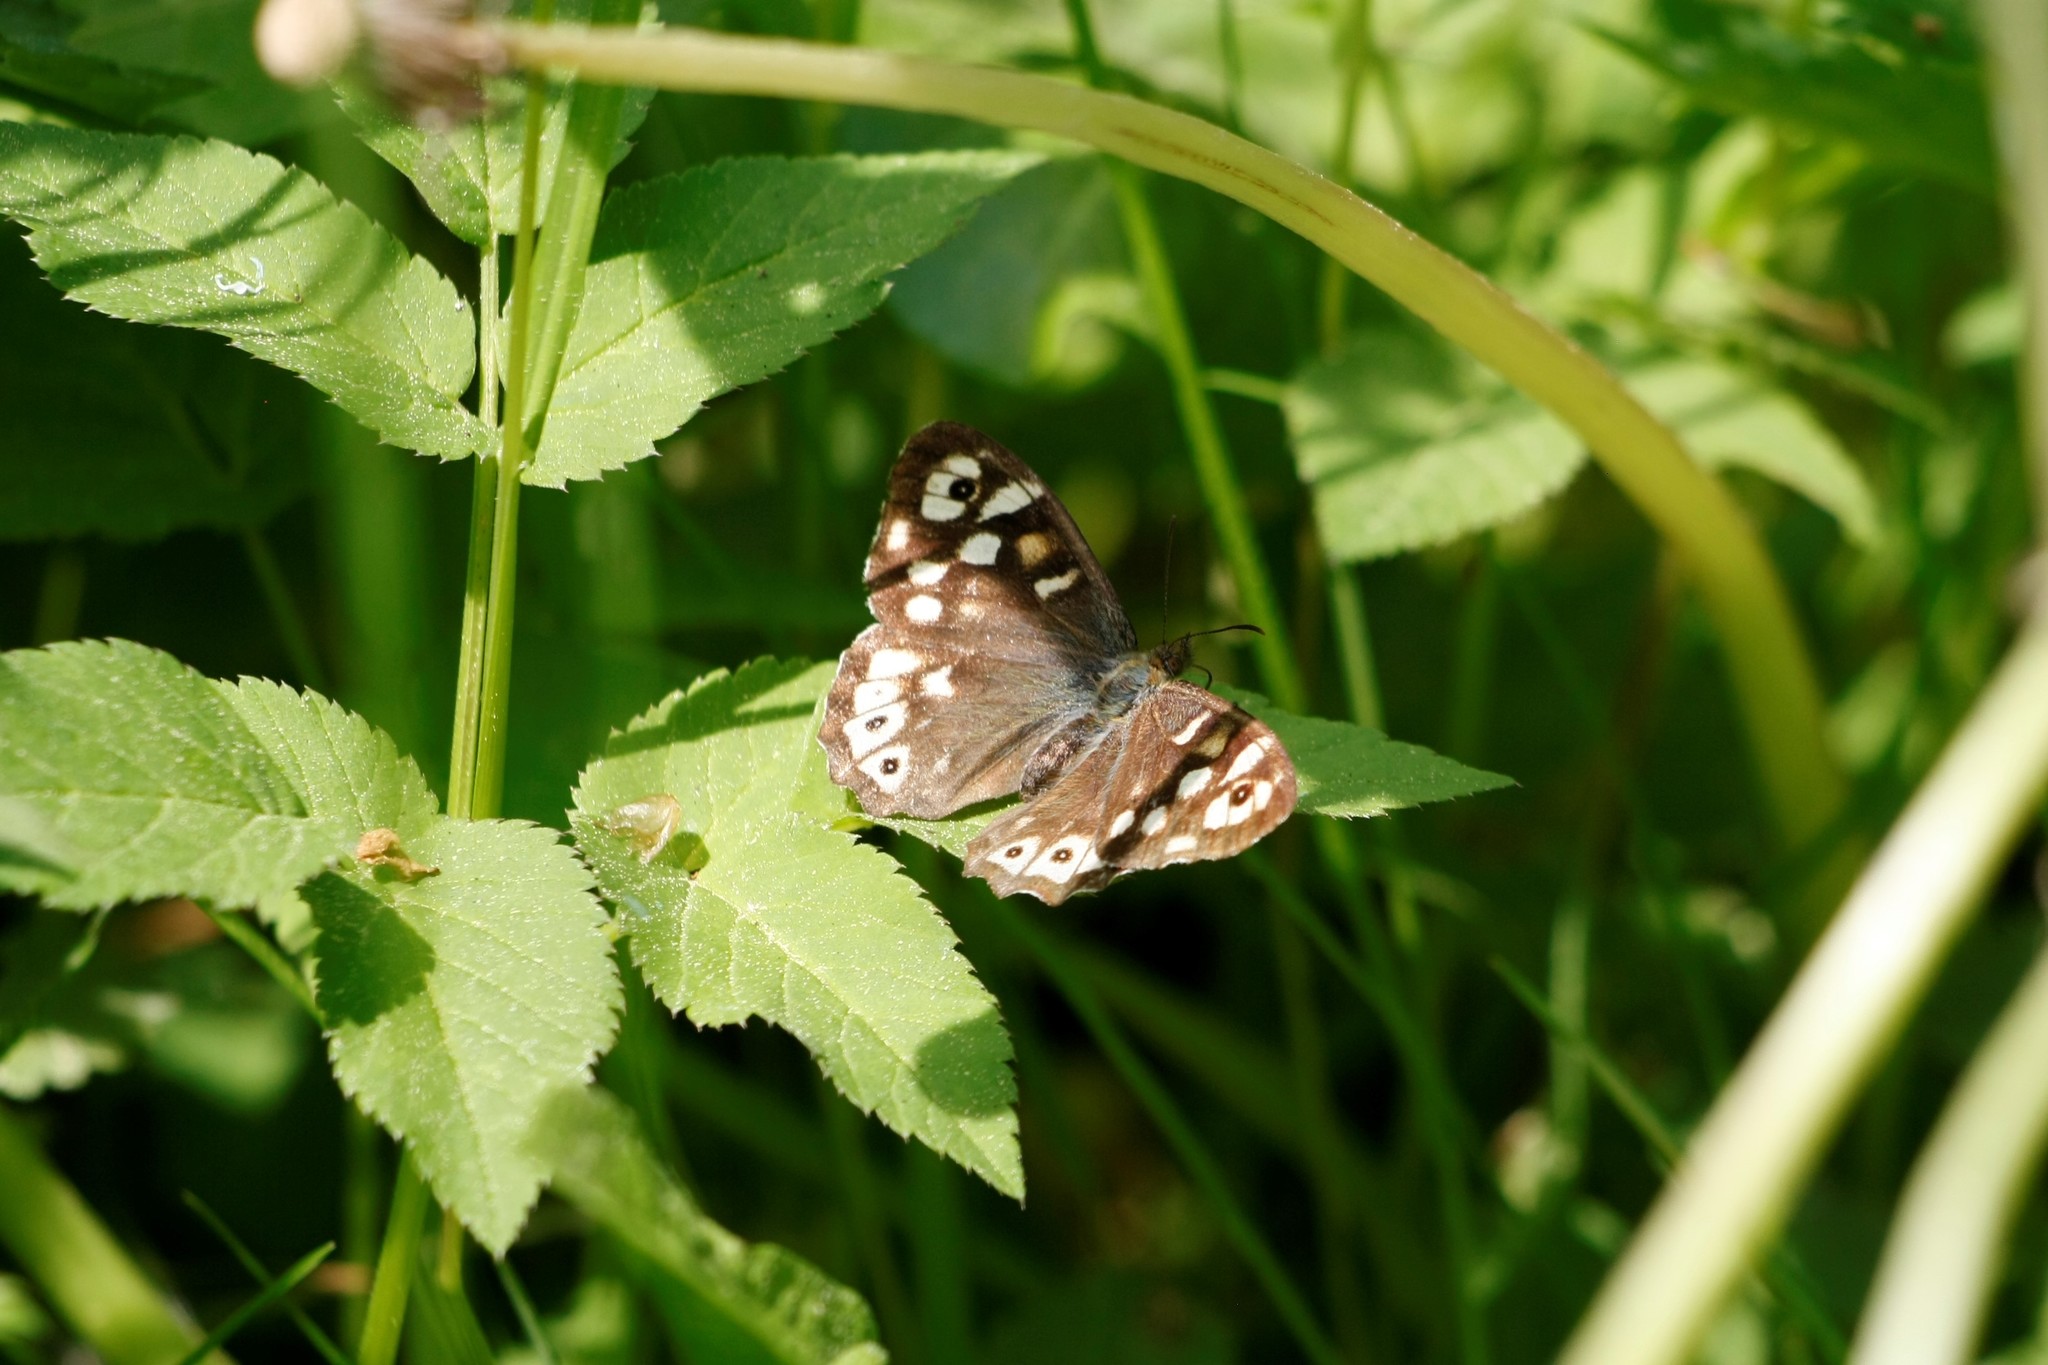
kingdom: Animalia
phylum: Arthropoda
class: Insecta
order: Lepidoptera
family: Nymphalidae
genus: Pararge
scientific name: Pararge aegeria
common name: Speckled wood
